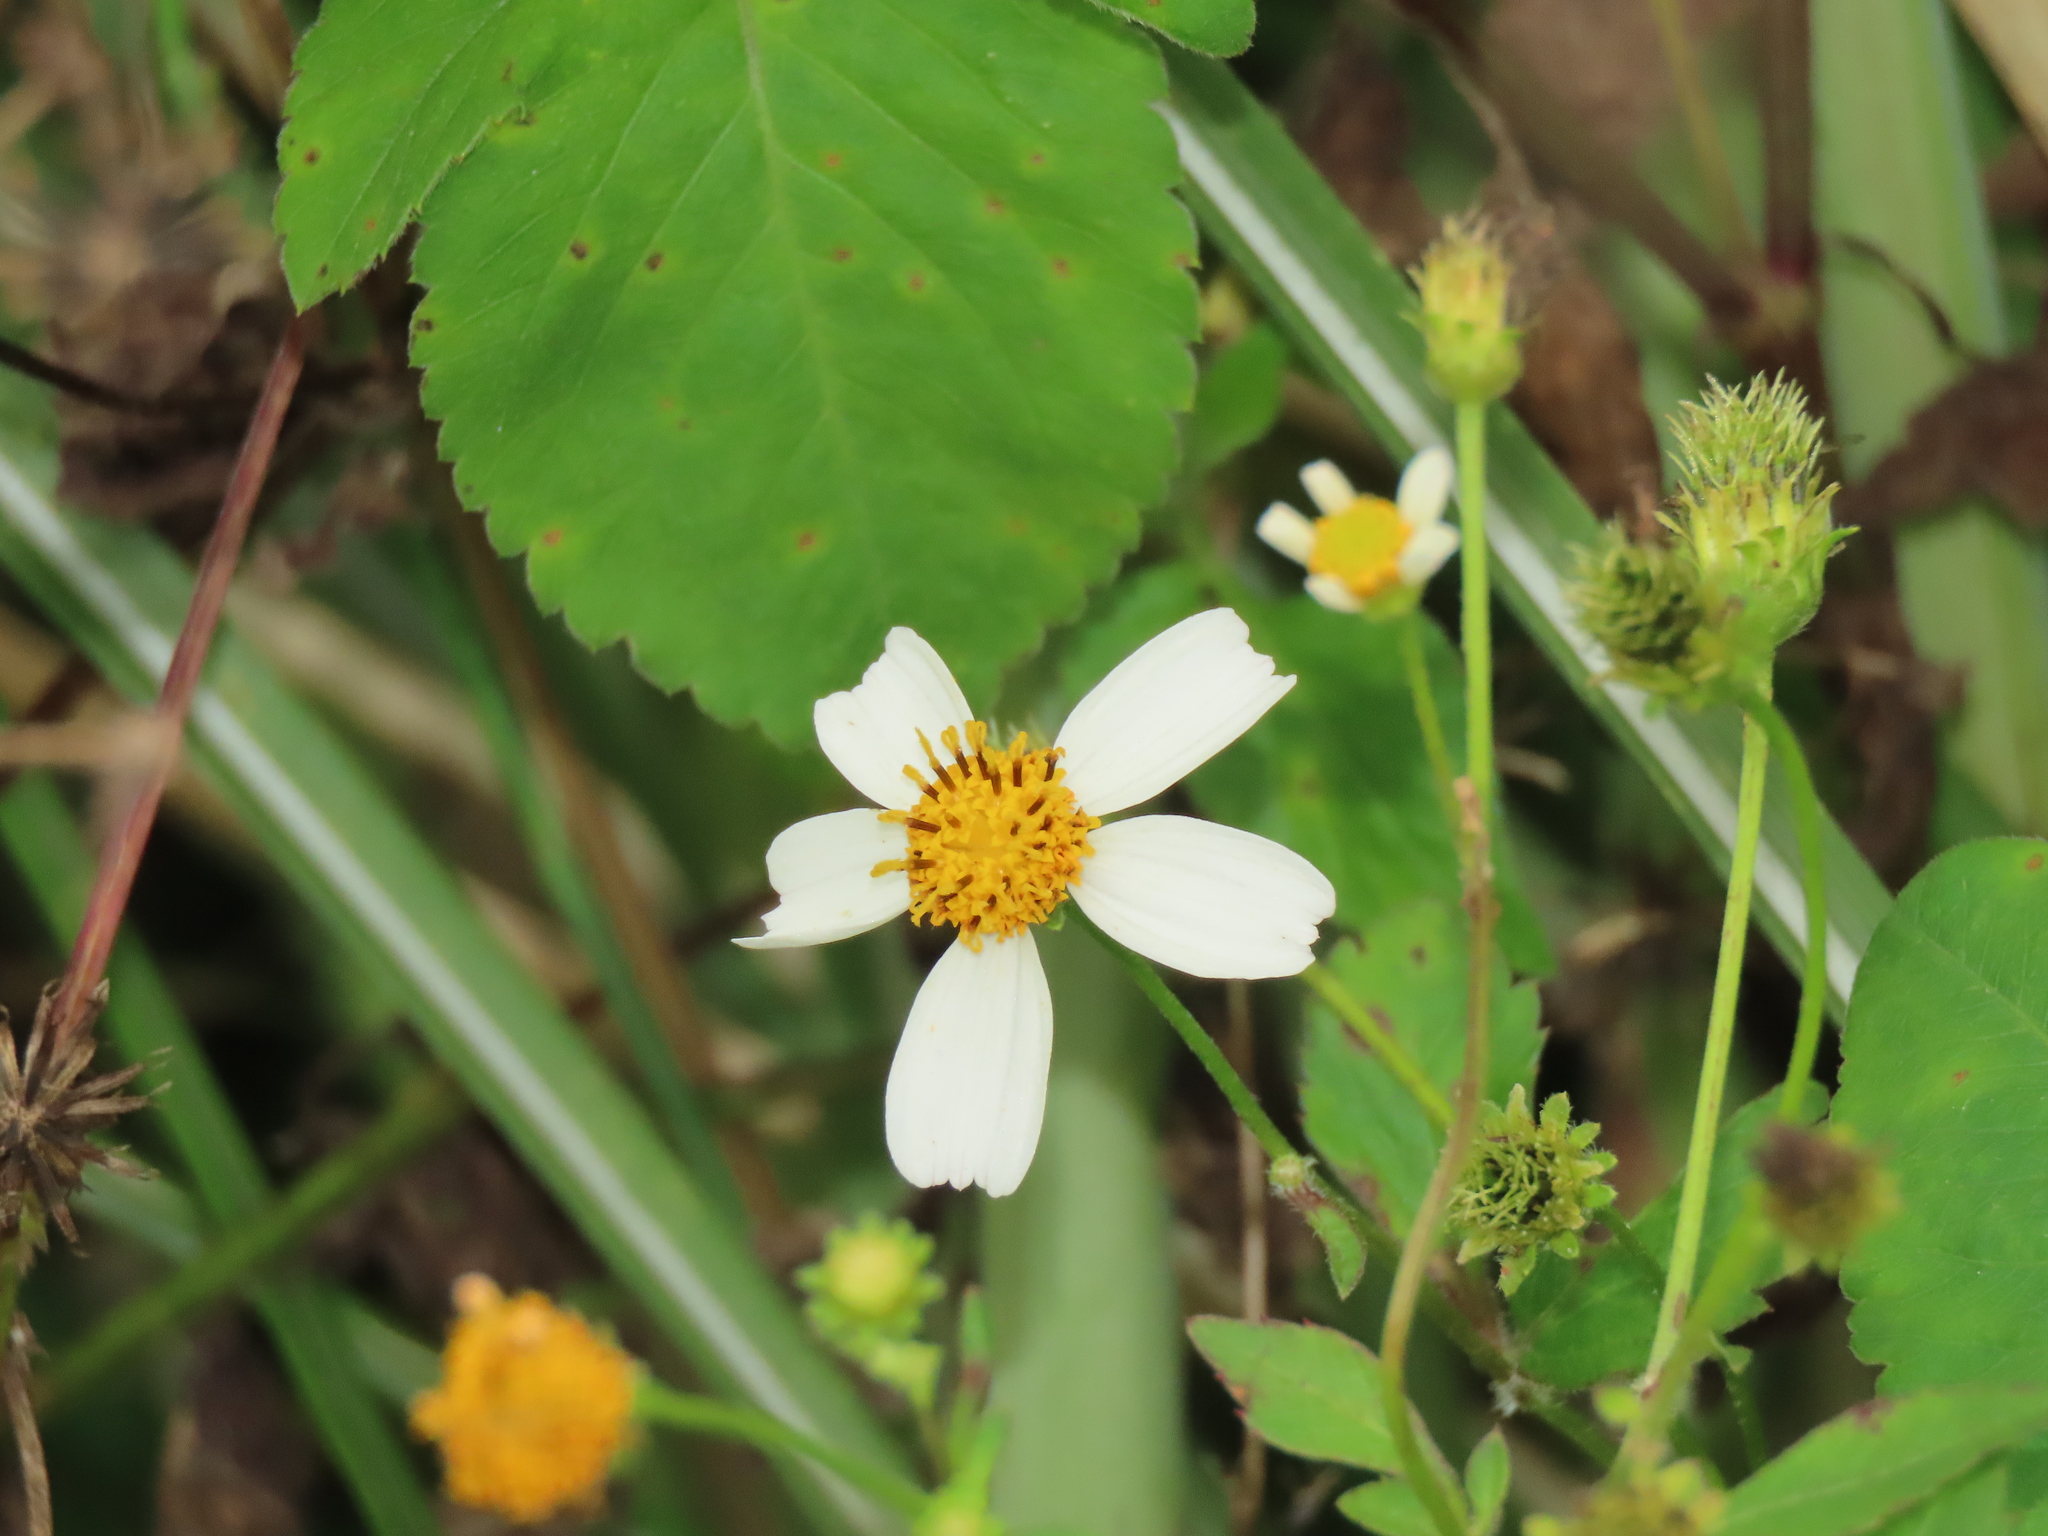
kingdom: Plantae
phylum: Tracheophyta
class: Magnoliopsida
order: Asterales
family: Asteraceae
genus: Bidens
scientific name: Bidens alba
